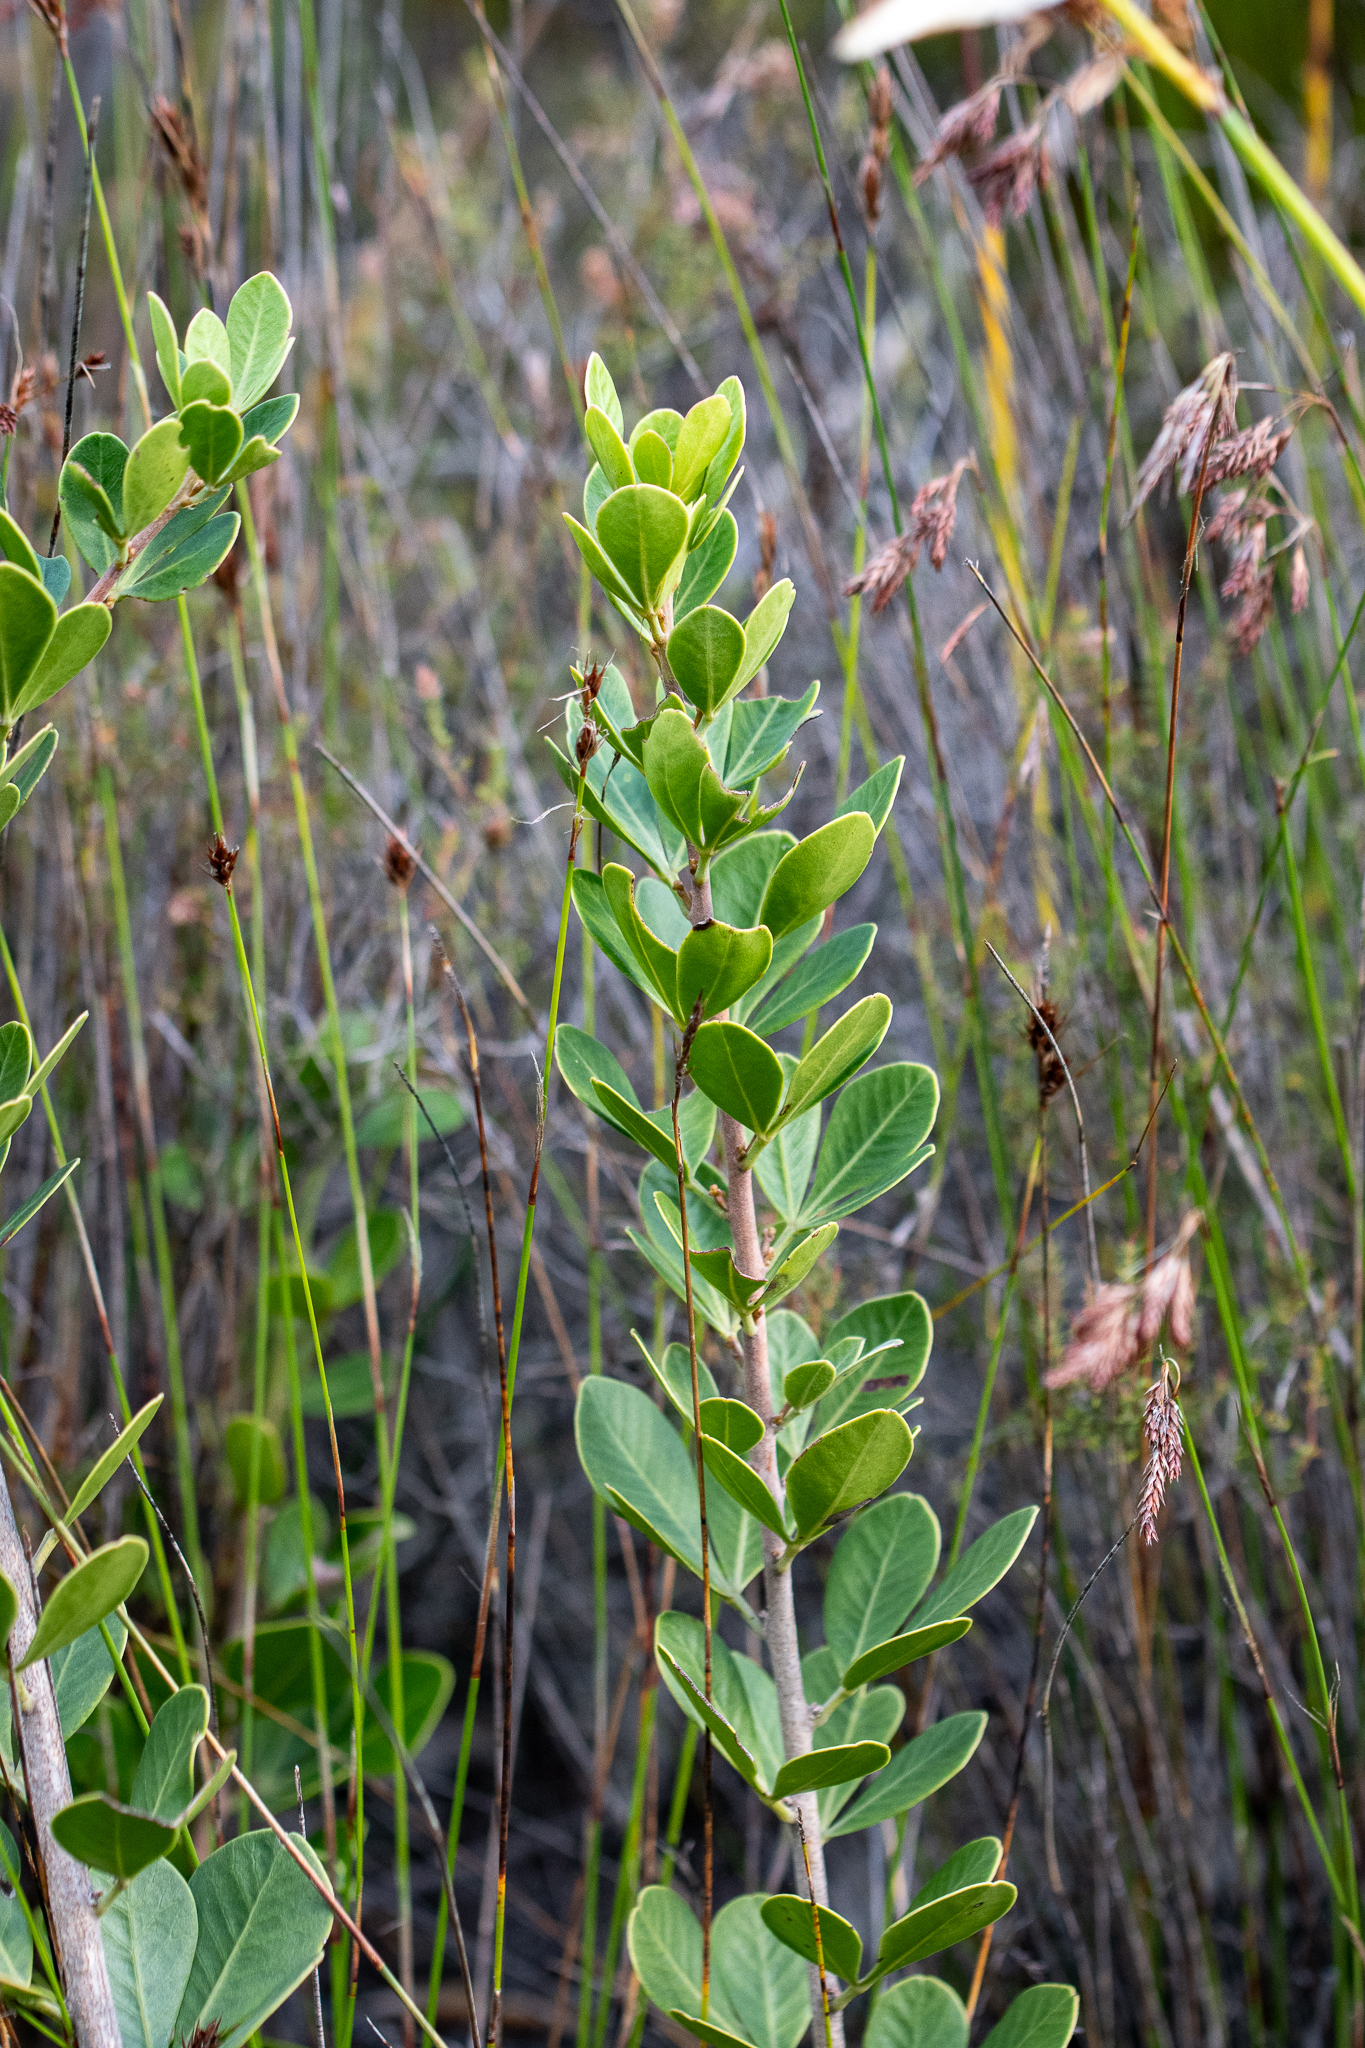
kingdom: Plantae
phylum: Tracheophyta
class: Magnoliopsida
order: Sapindales
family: Anacardiaceae
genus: Searsia
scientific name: Searsia scytophylla
